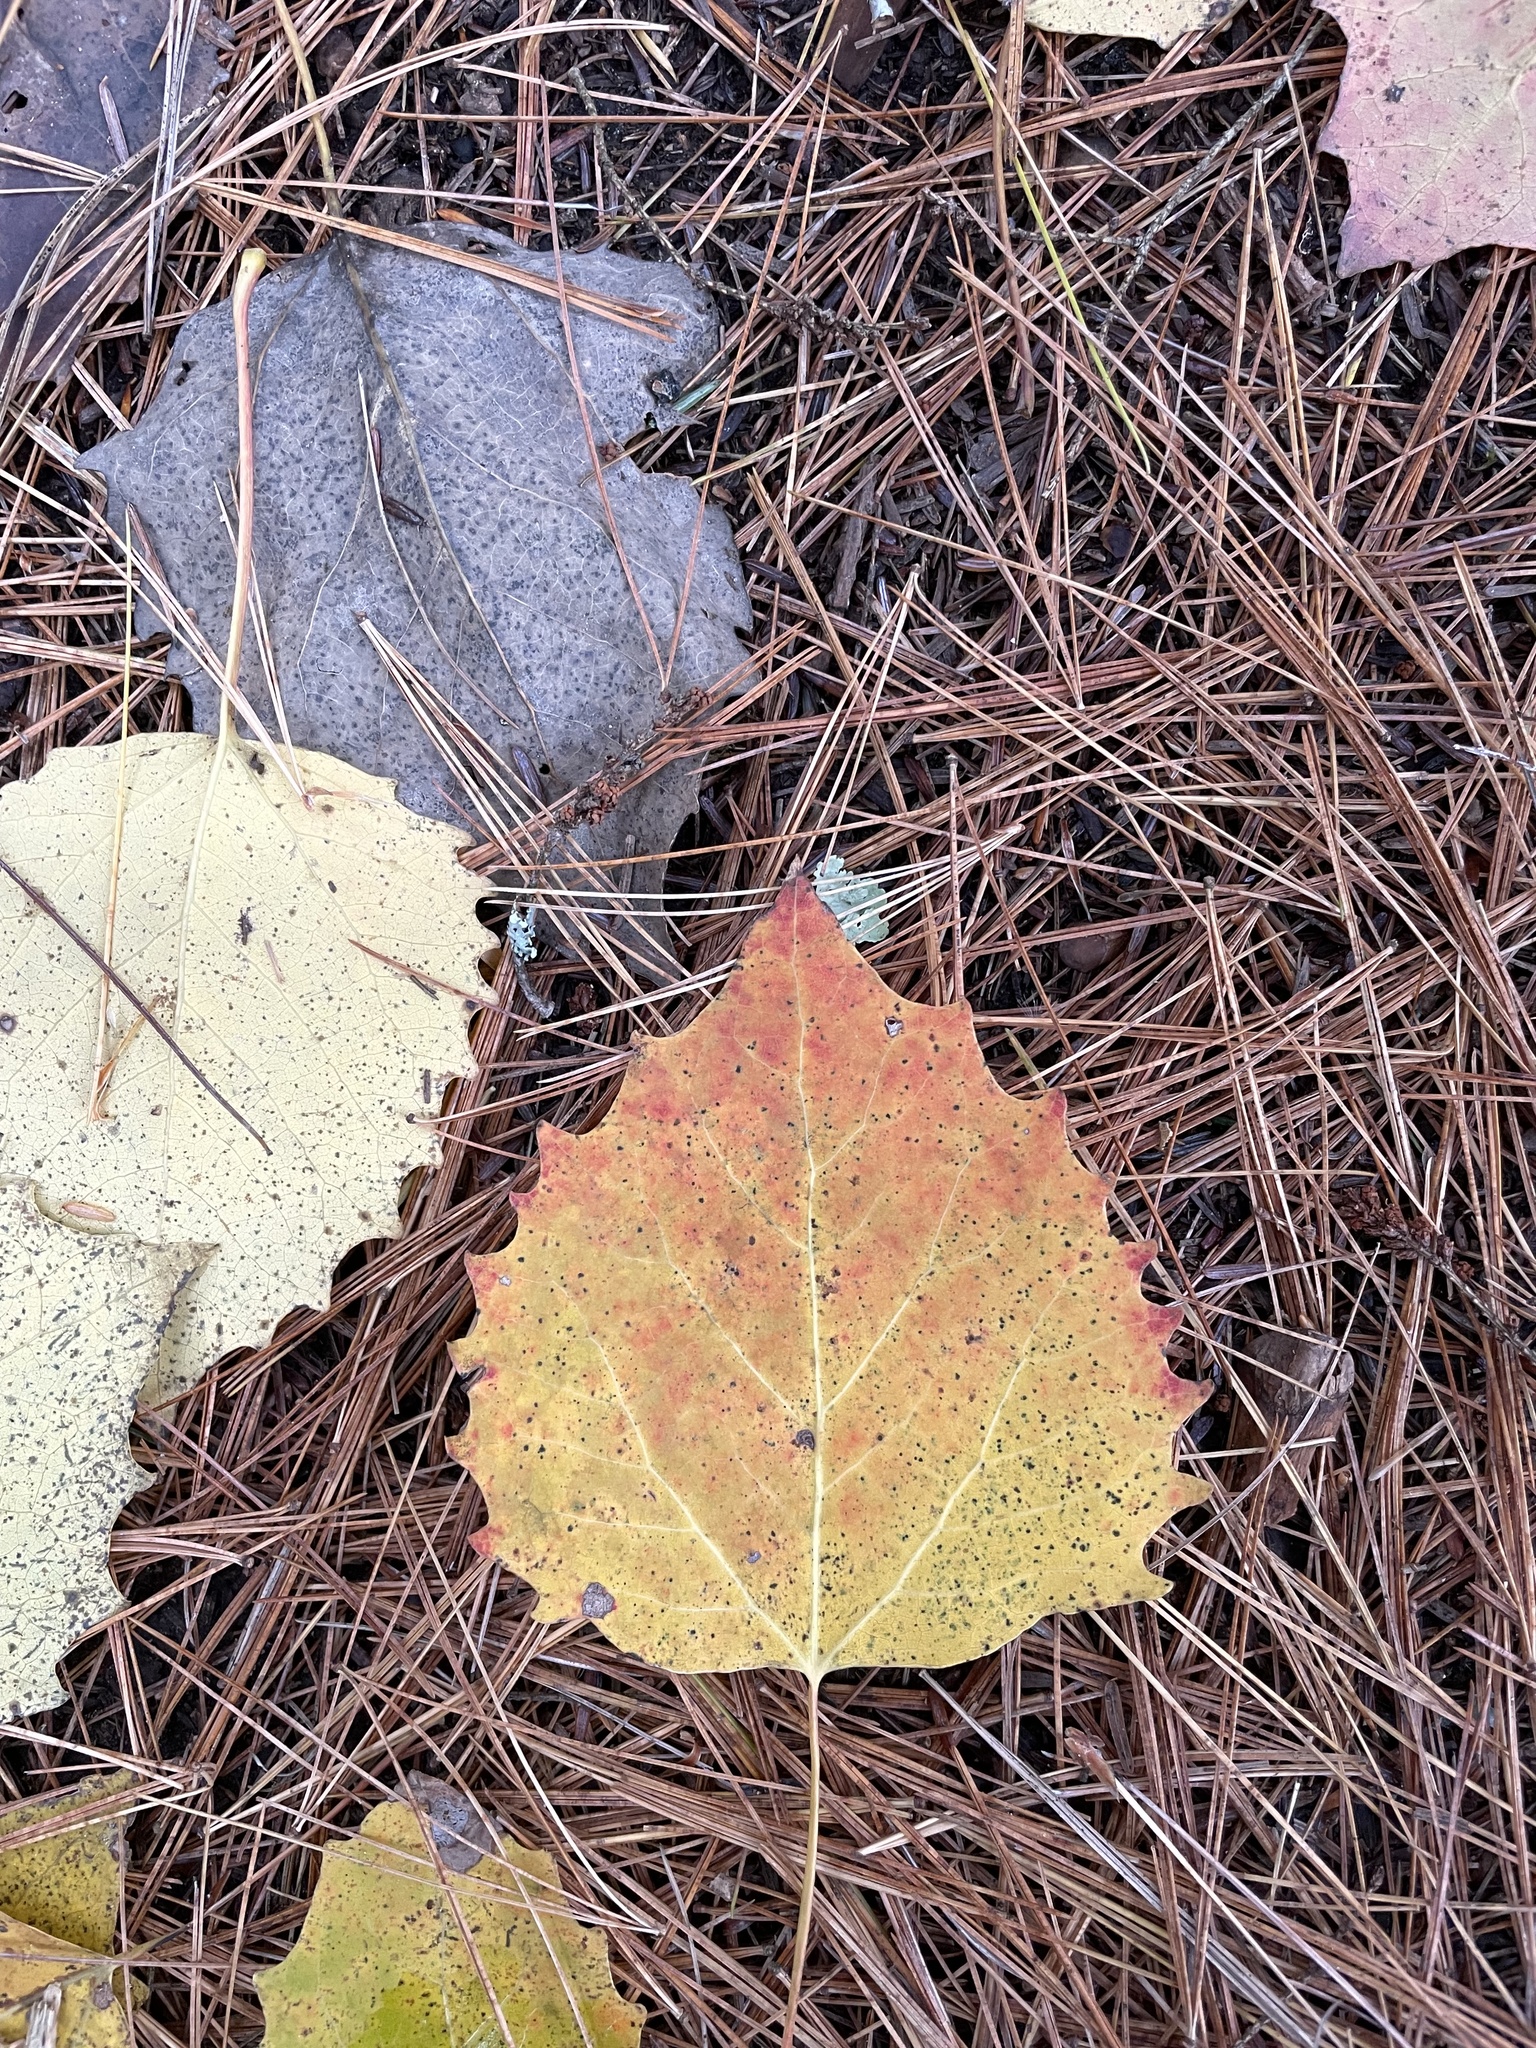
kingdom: Plantae
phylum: Tracheophyta
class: Magnoliopsida
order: Malpighiales
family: Salicaceae
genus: Populus
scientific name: Populus grandidentata
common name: Bigtooth aspen
